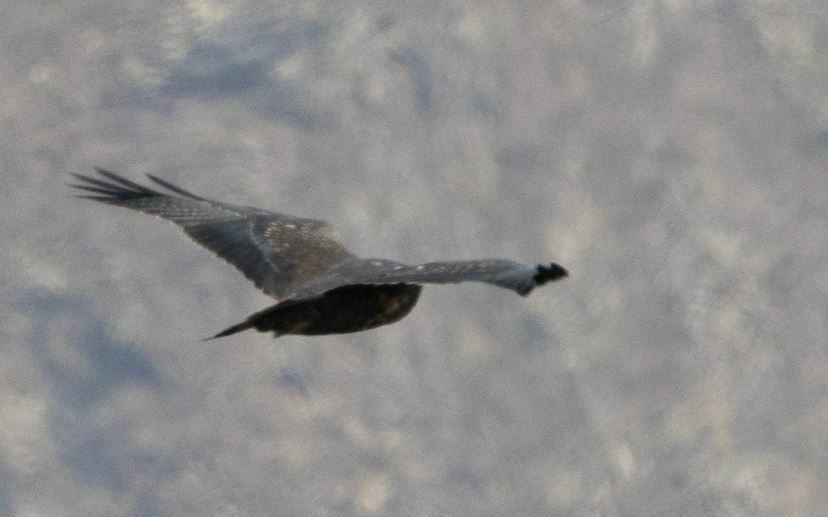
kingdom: Animalia
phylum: Chordata
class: Aves
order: Accipitriformes
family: Accipitridae
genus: Geranoaetus
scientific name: Geranoaetus melanoleucus
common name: Black-chested buzzard-eagle
